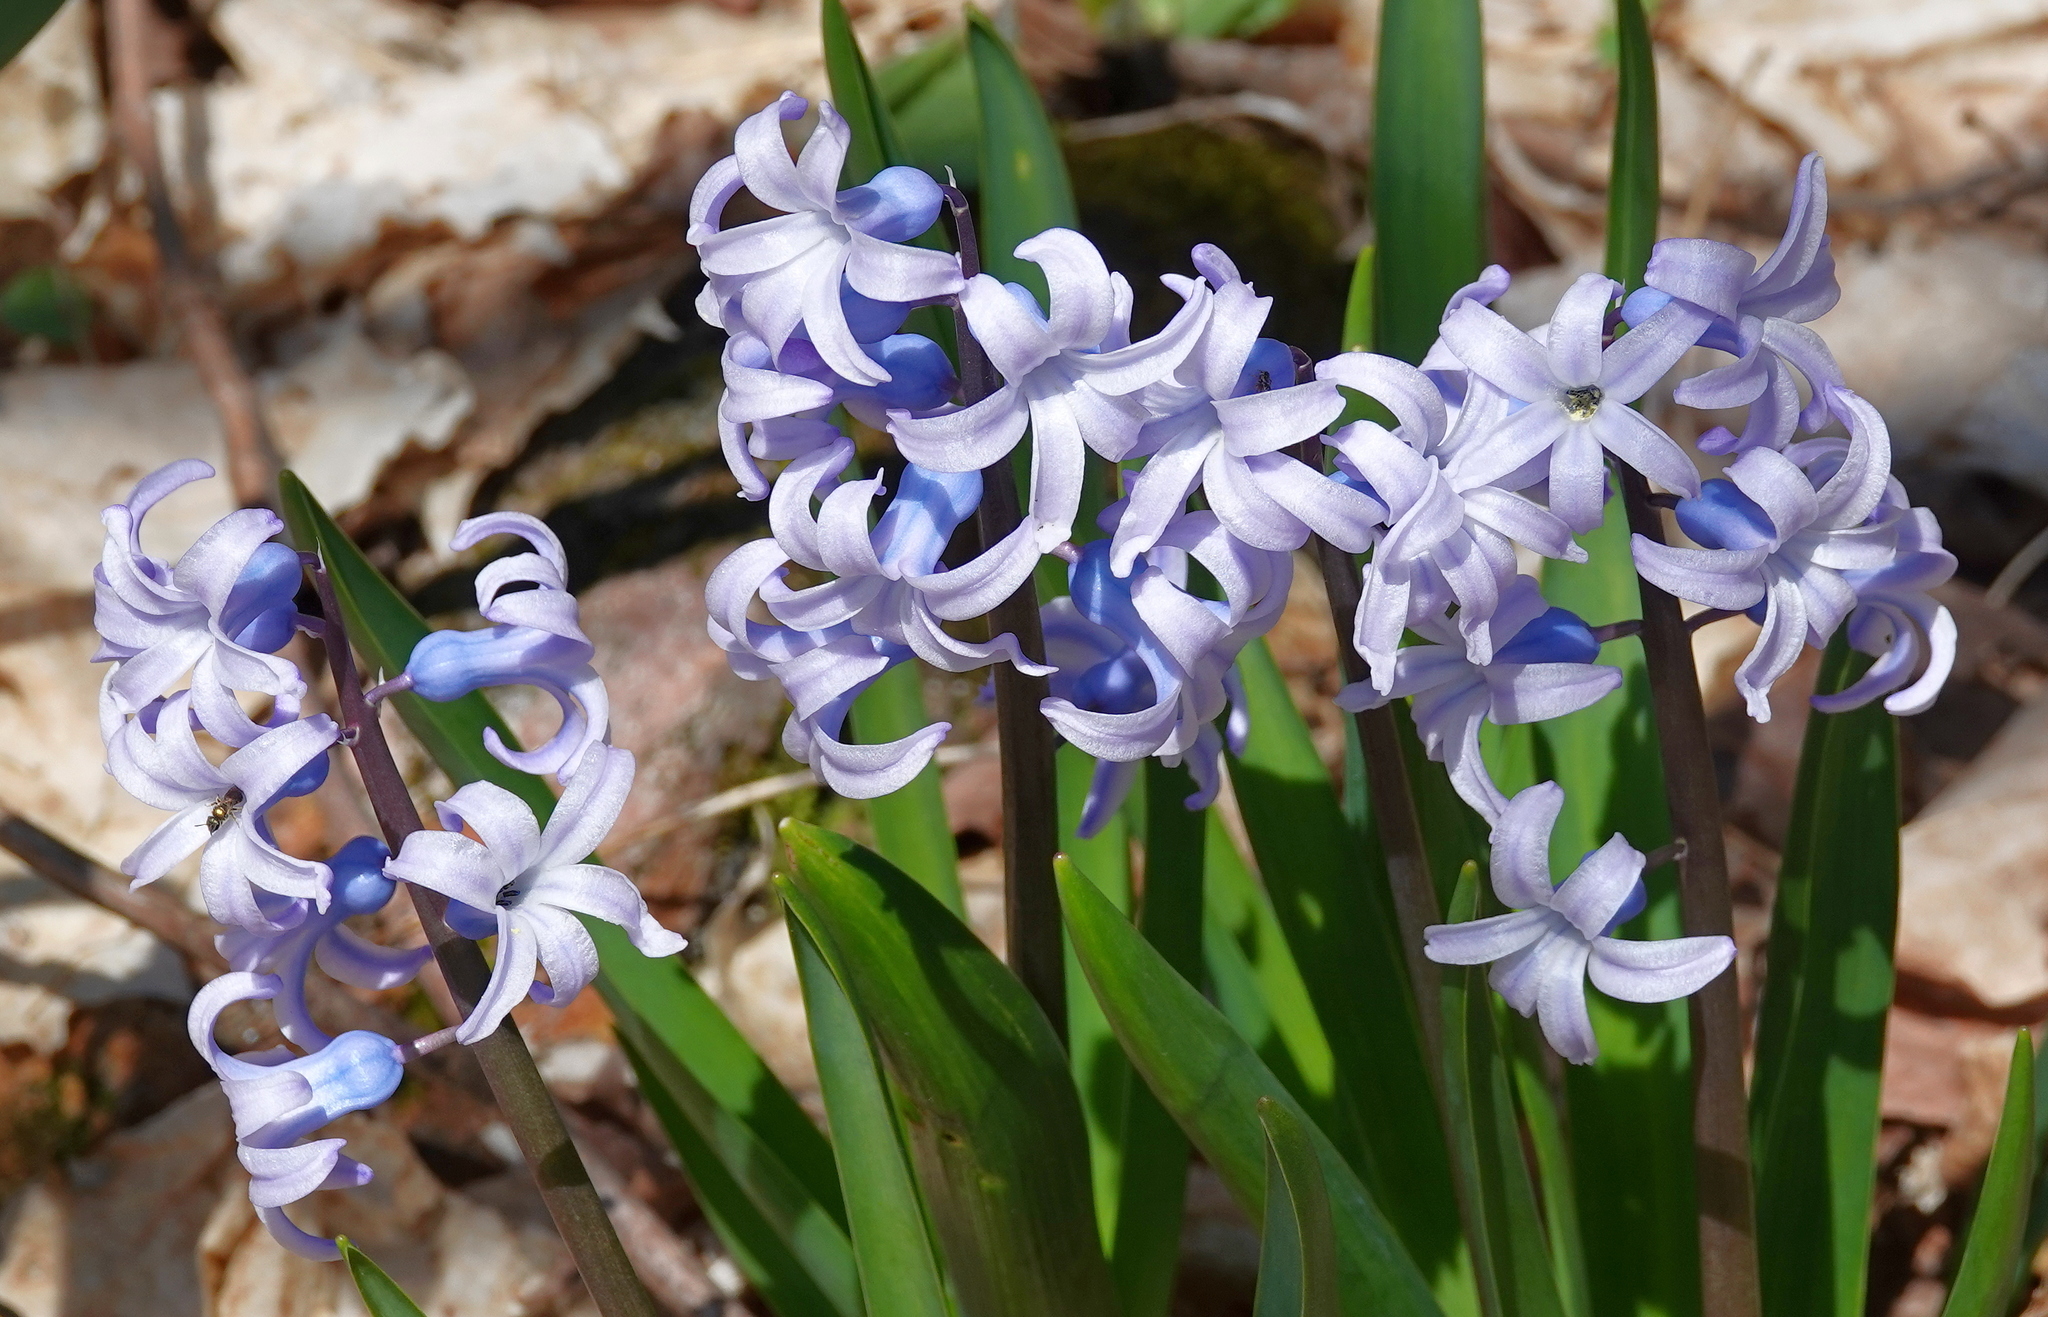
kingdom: Plantae
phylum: Tracheophyta
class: Liliopsida
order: Asparagales
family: Asparagaceae
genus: Hyacinthus
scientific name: Hyacinthus orientalis
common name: Hyacinth
